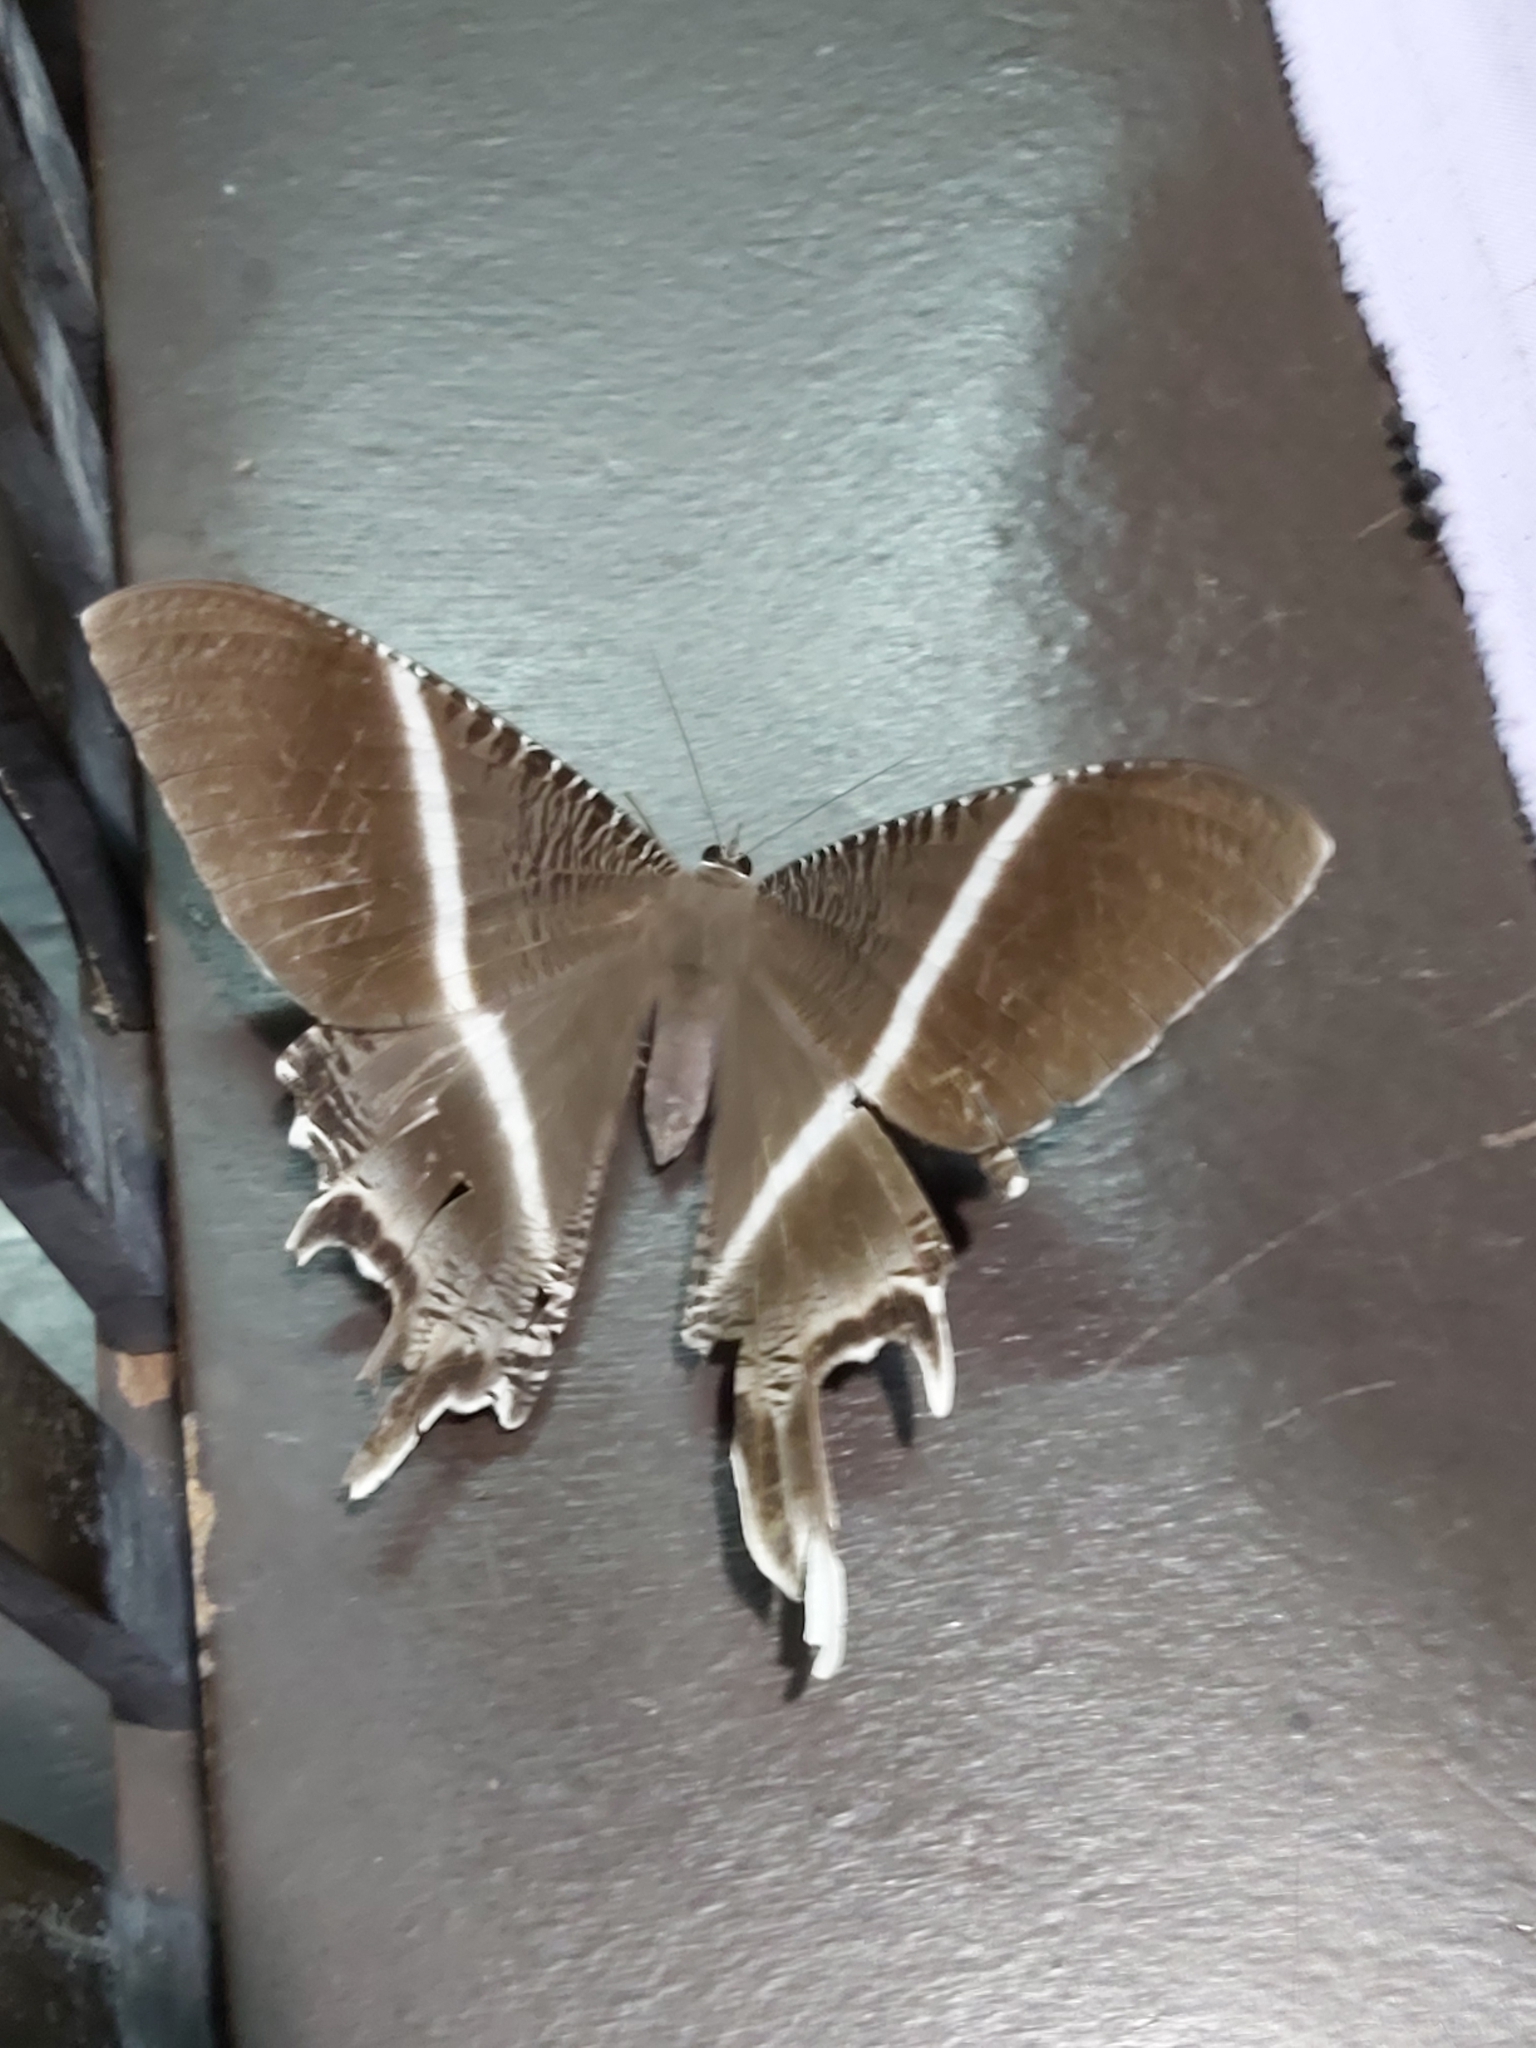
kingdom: Animalia
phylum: Arthropoda
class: Insecta
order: Lepidoptera
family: Uraniidae
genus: Lyssa
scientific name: Lyssa menoetius
